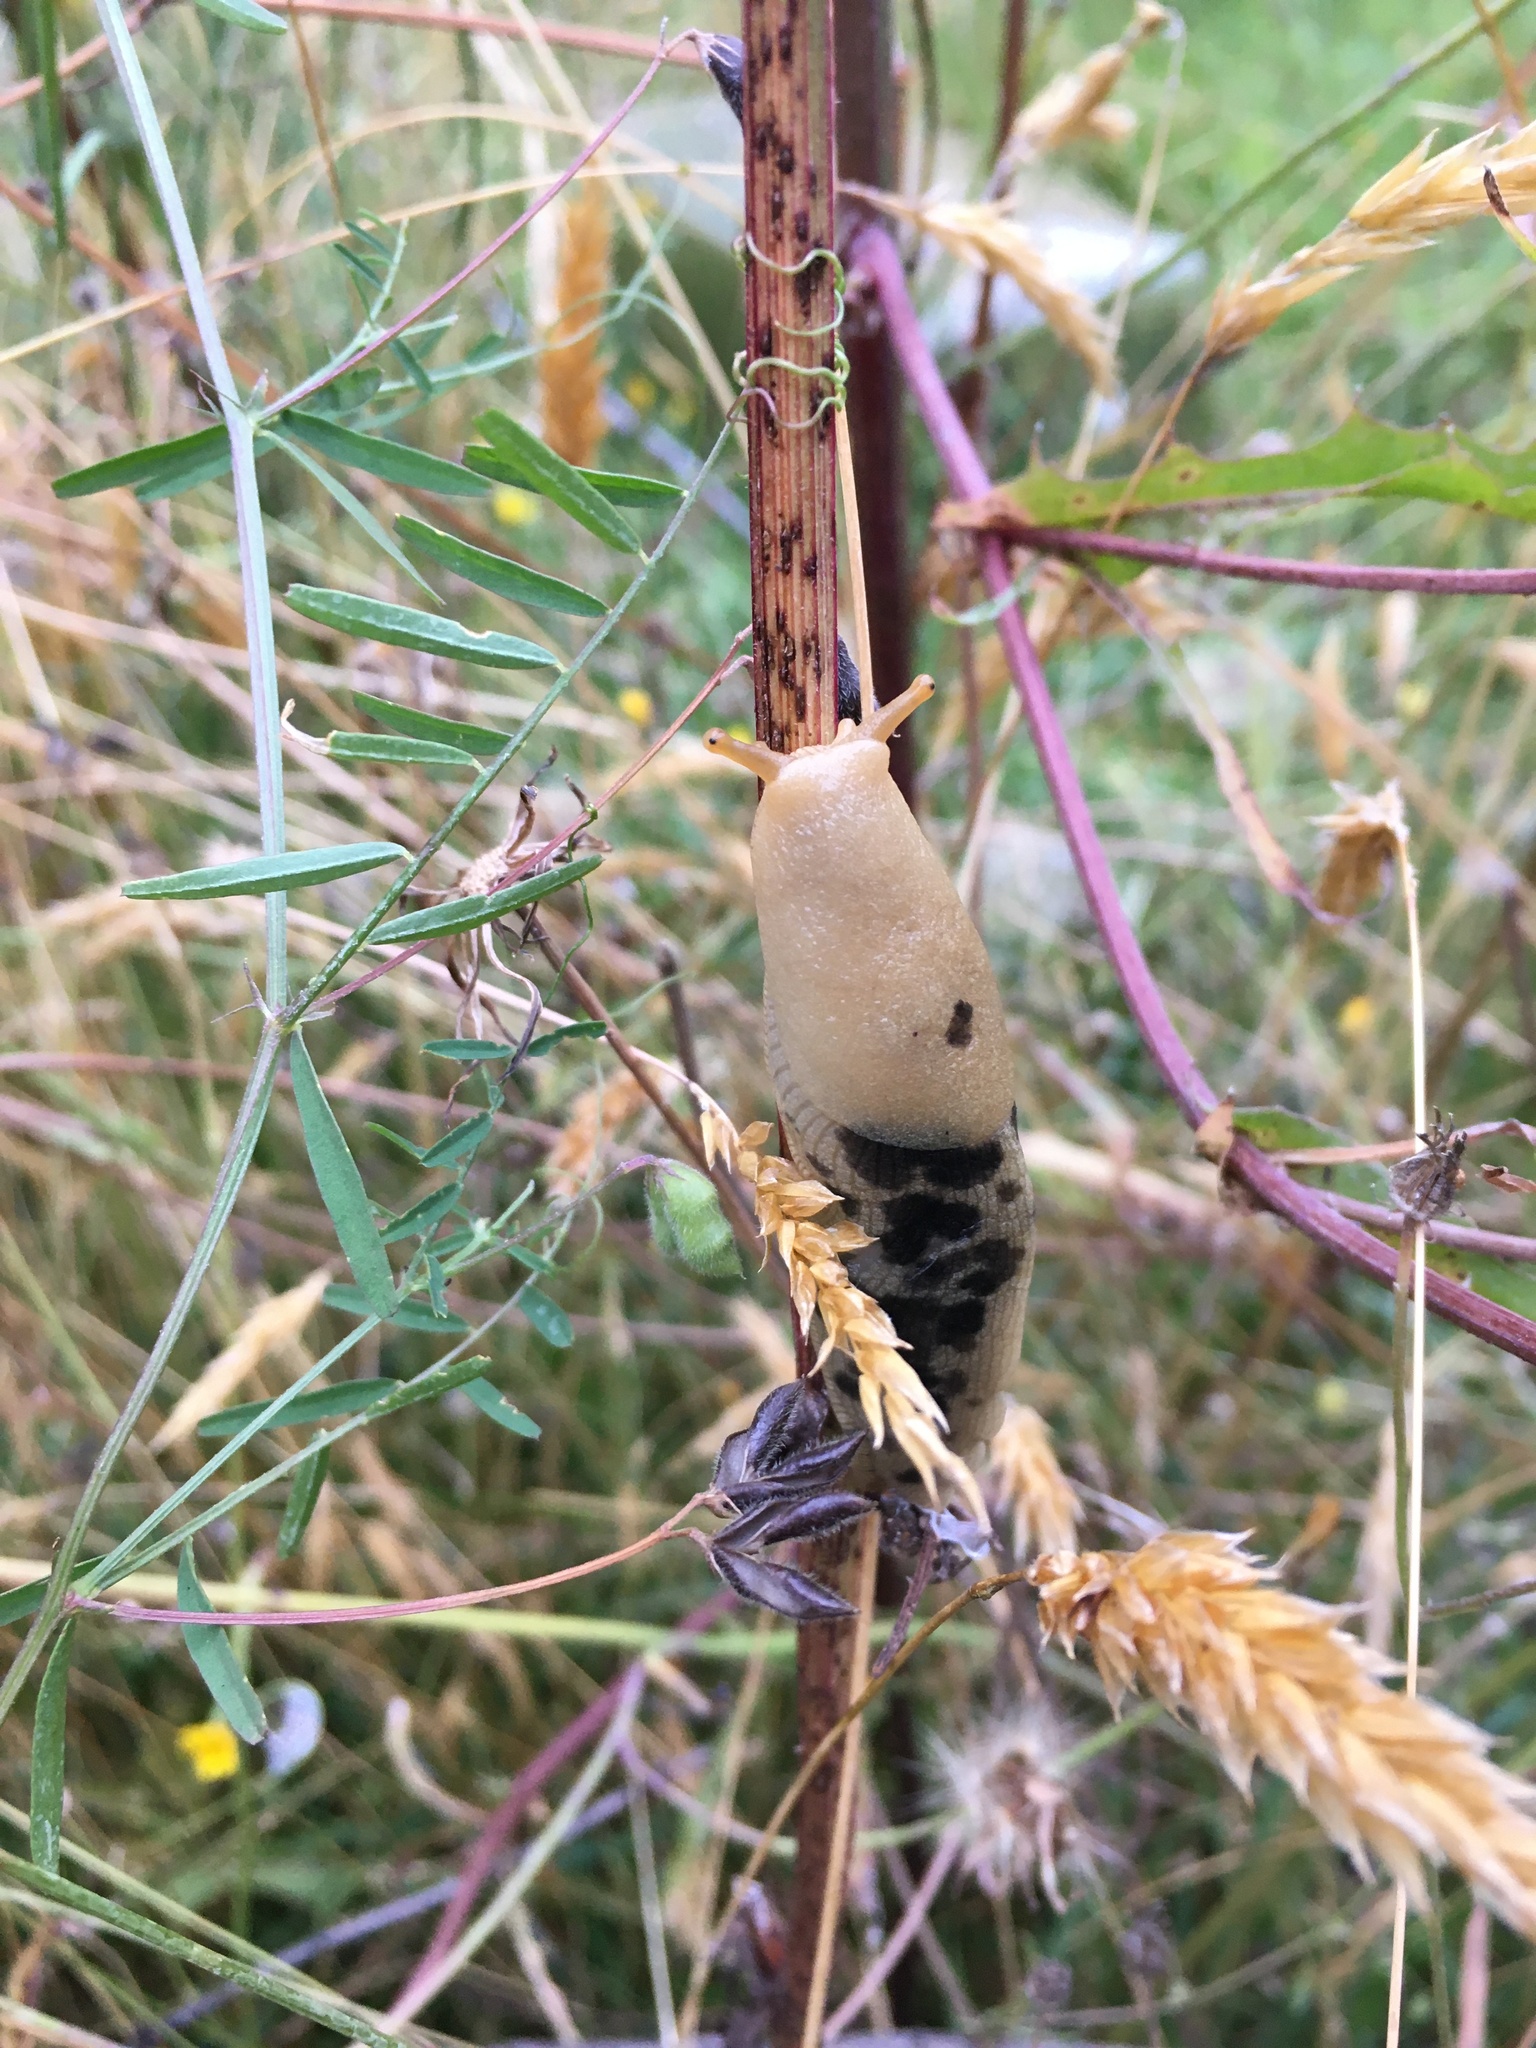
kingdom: Animalia
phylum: Mollusca
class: Gastropoda
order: Stylommatophora
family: Ariolimacidae
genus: Ariolimax
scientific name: Ariolimax columbianus
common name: Pacific banana slug
